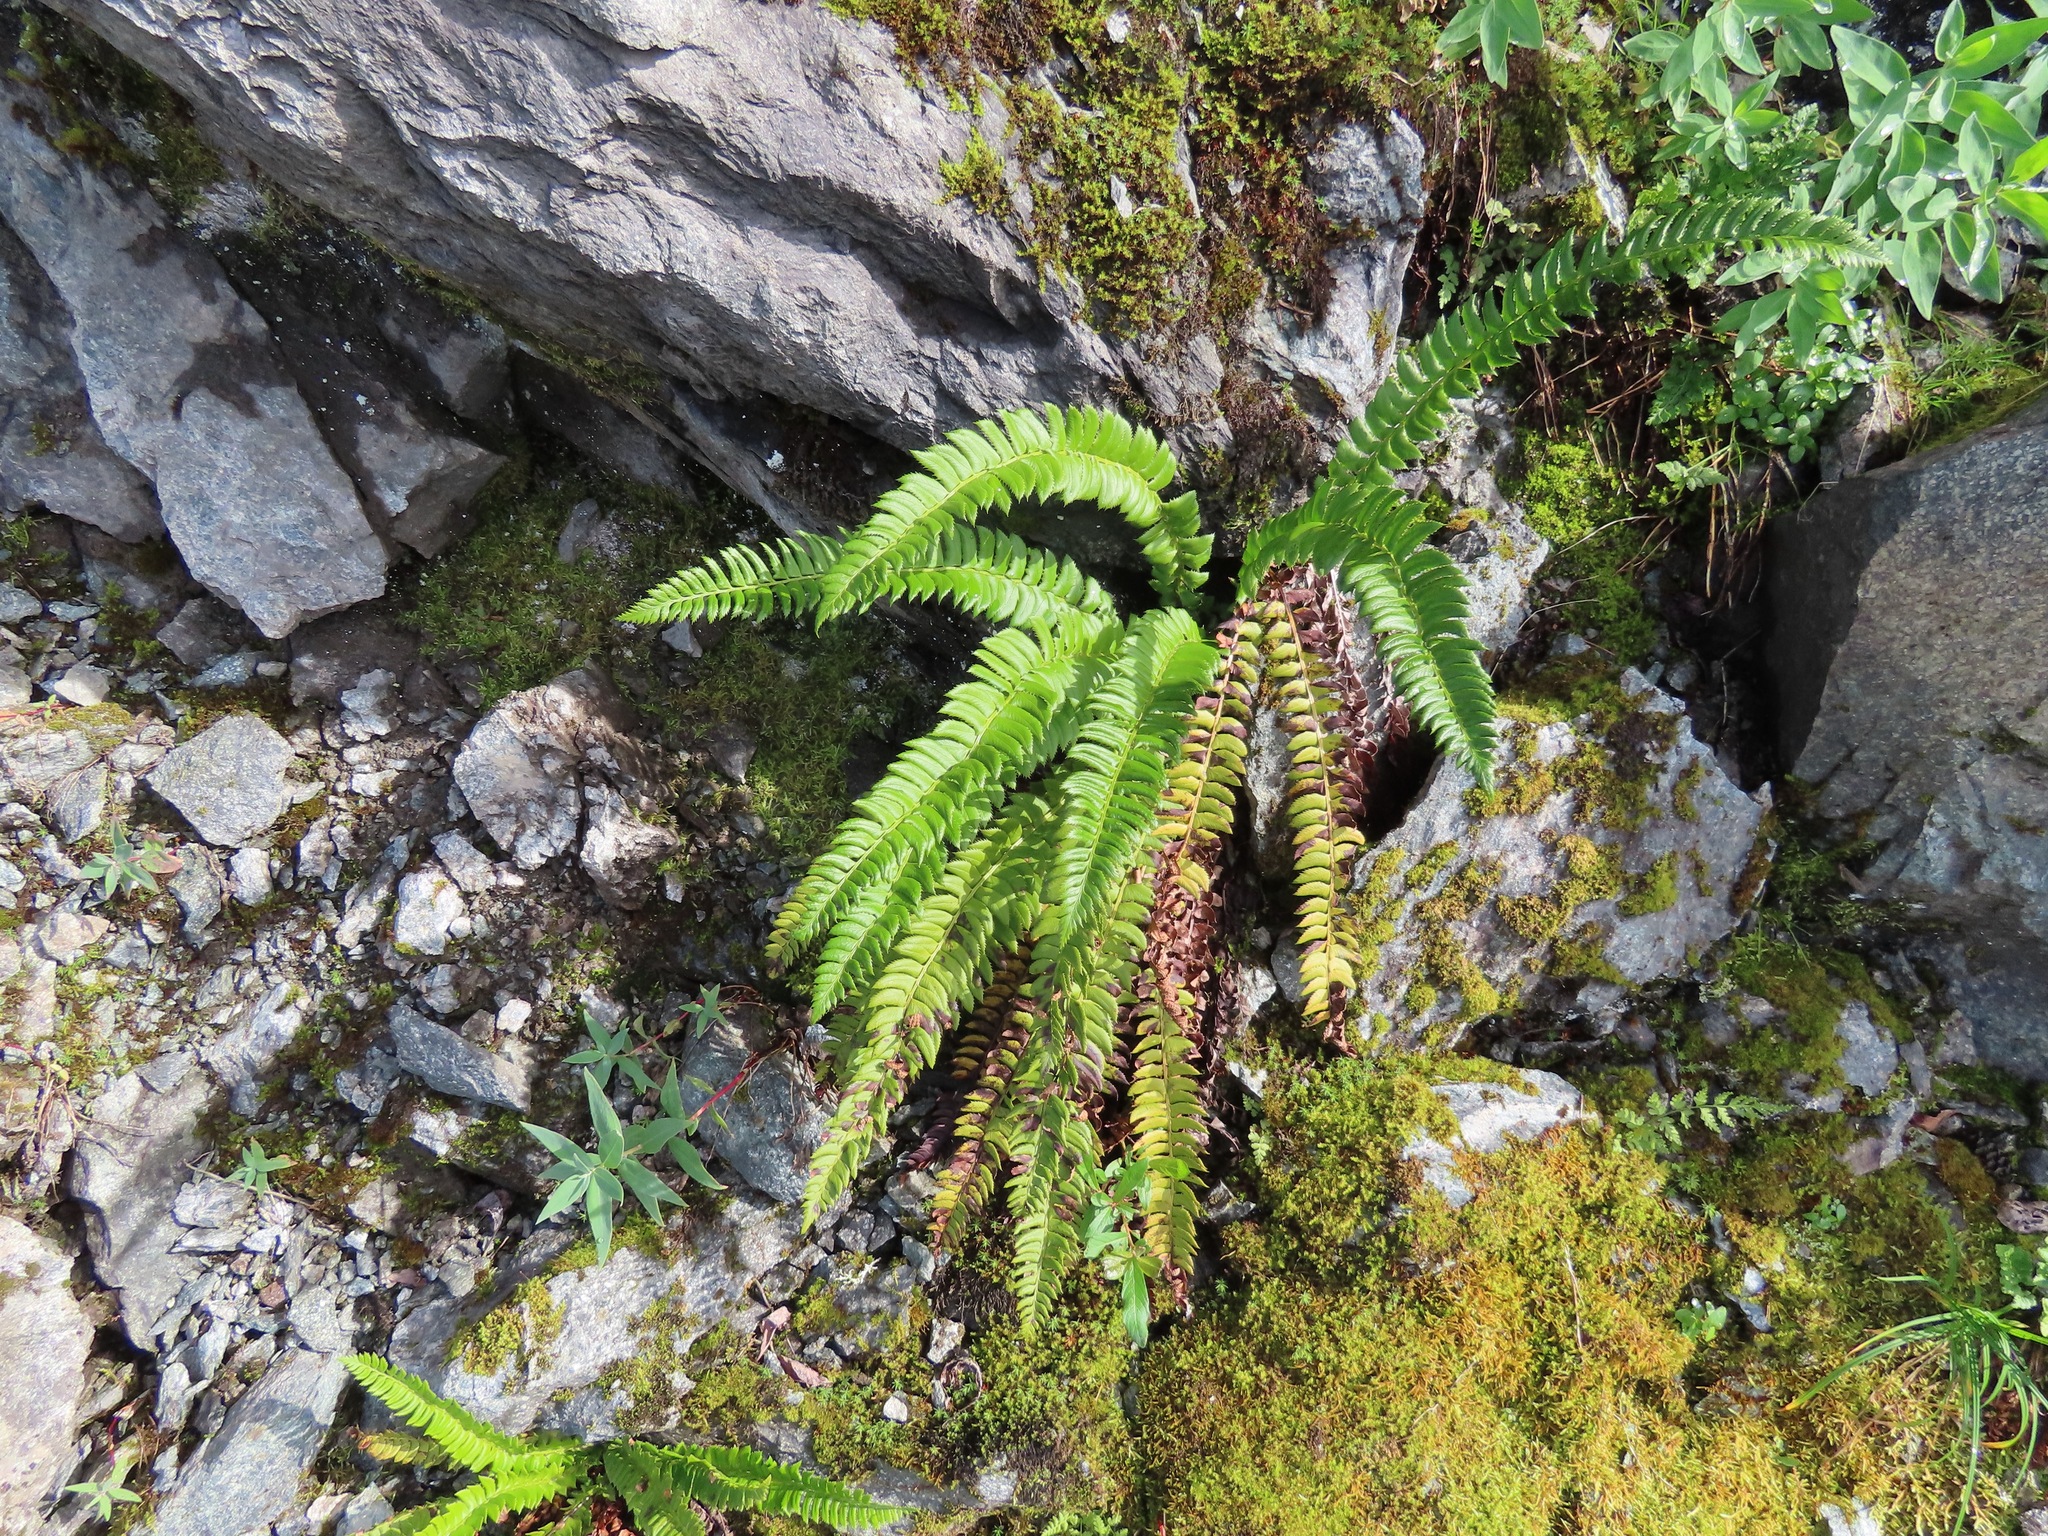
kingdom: Plantae
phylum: Tracheophyta
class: Polypodiopsida
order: Polypodiales
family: Dryopteridaceae
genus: Polystichum
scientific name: Polystichum lonchitis
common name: Holly fern
